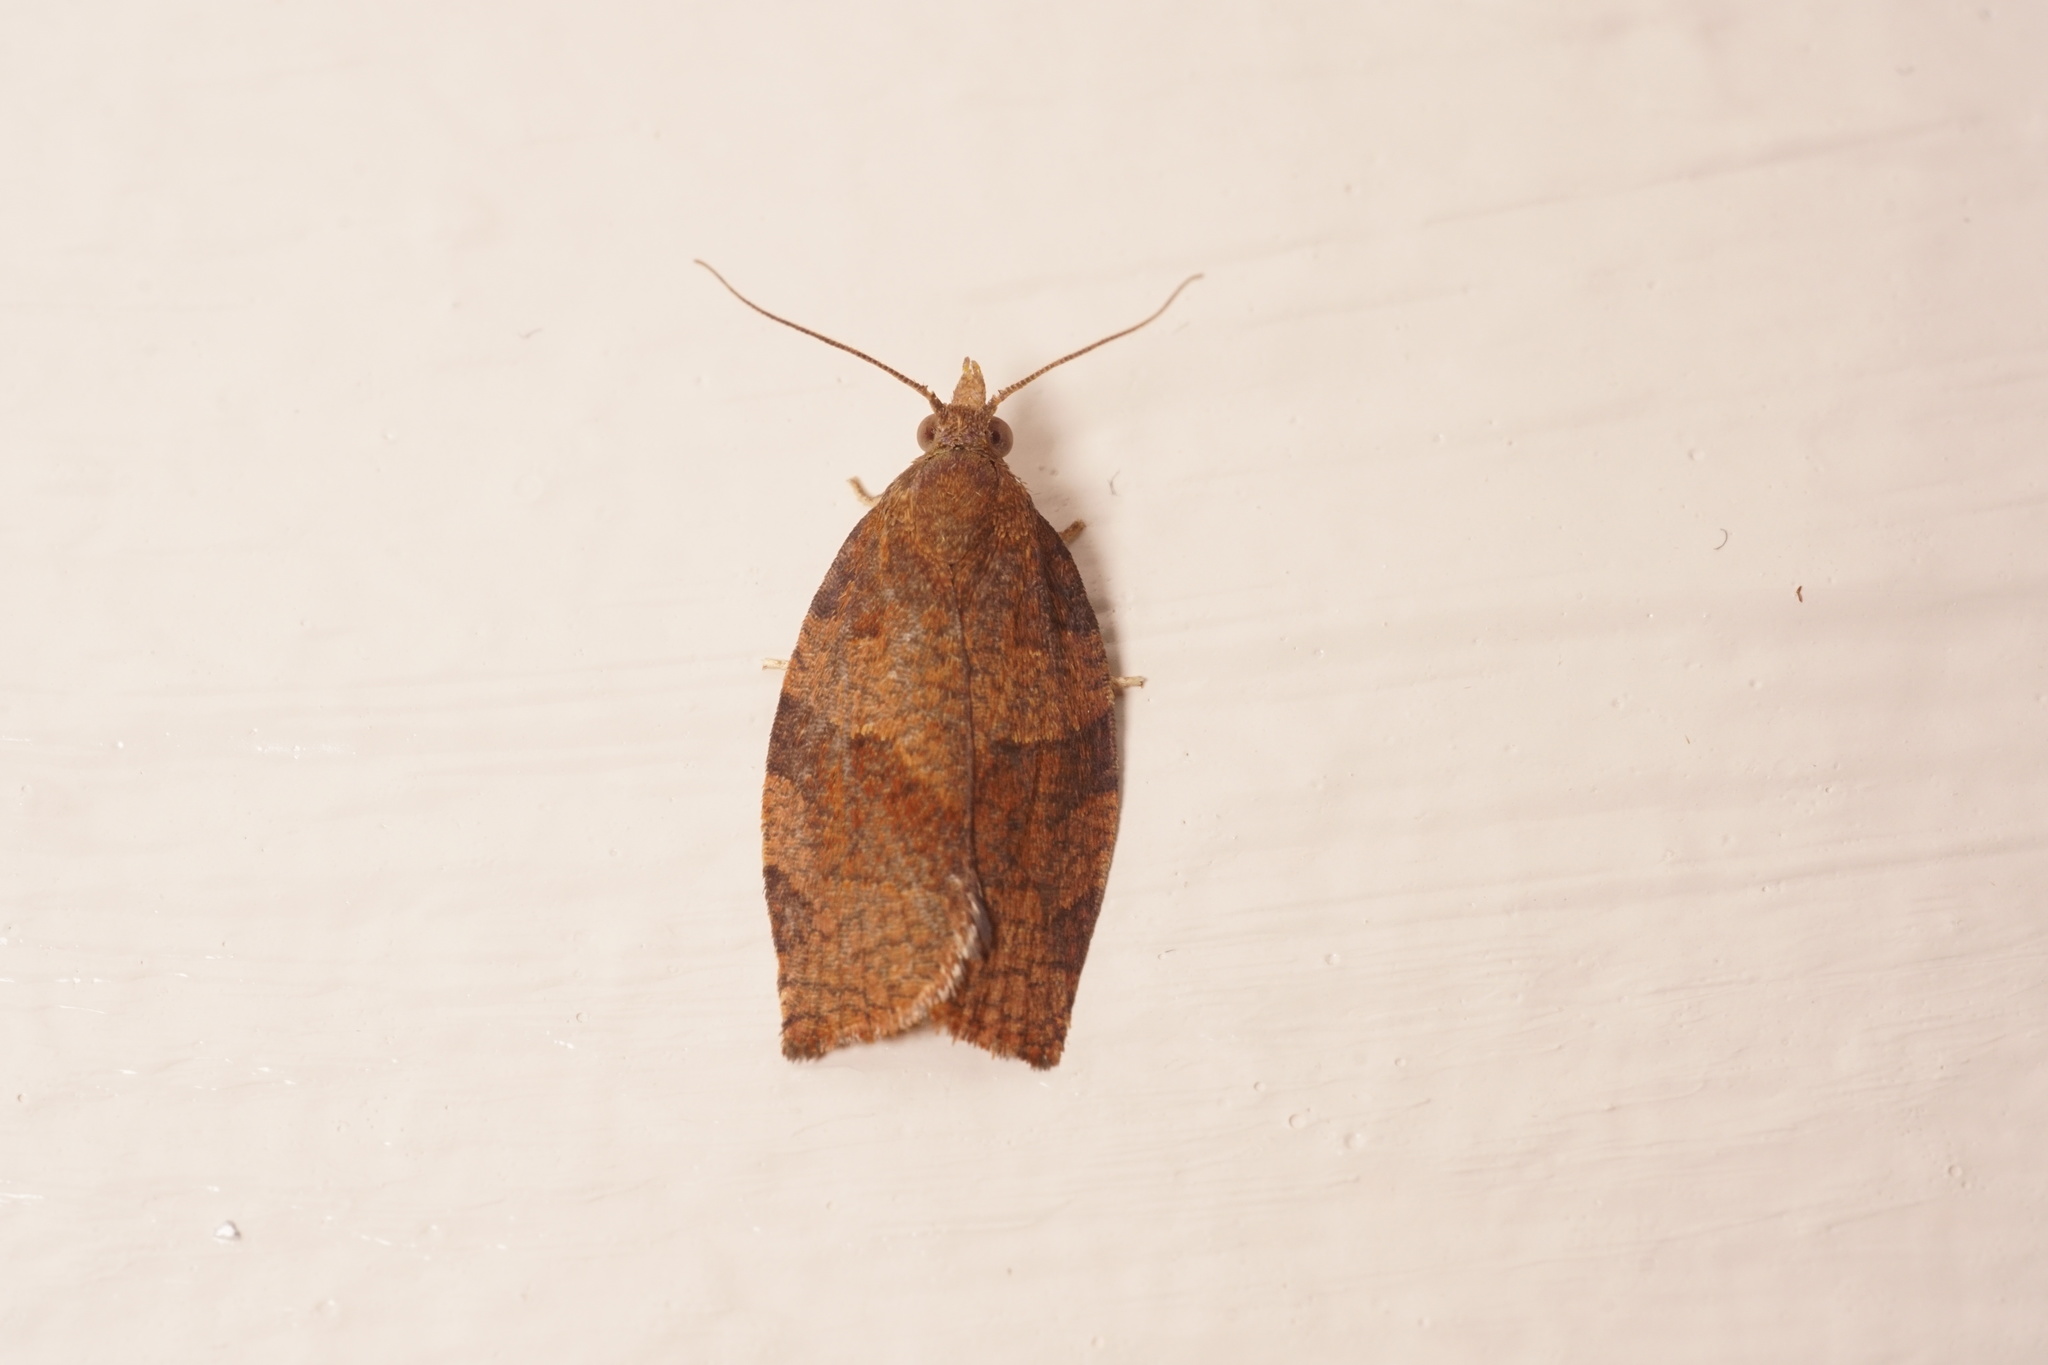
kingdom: Animalia
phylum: Arthropoda
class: Insecta
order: Lepidoptera
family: Tortricidae
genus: Pandemis
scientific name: Pandemis heparana
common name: Dark fruit-tree tortrix
